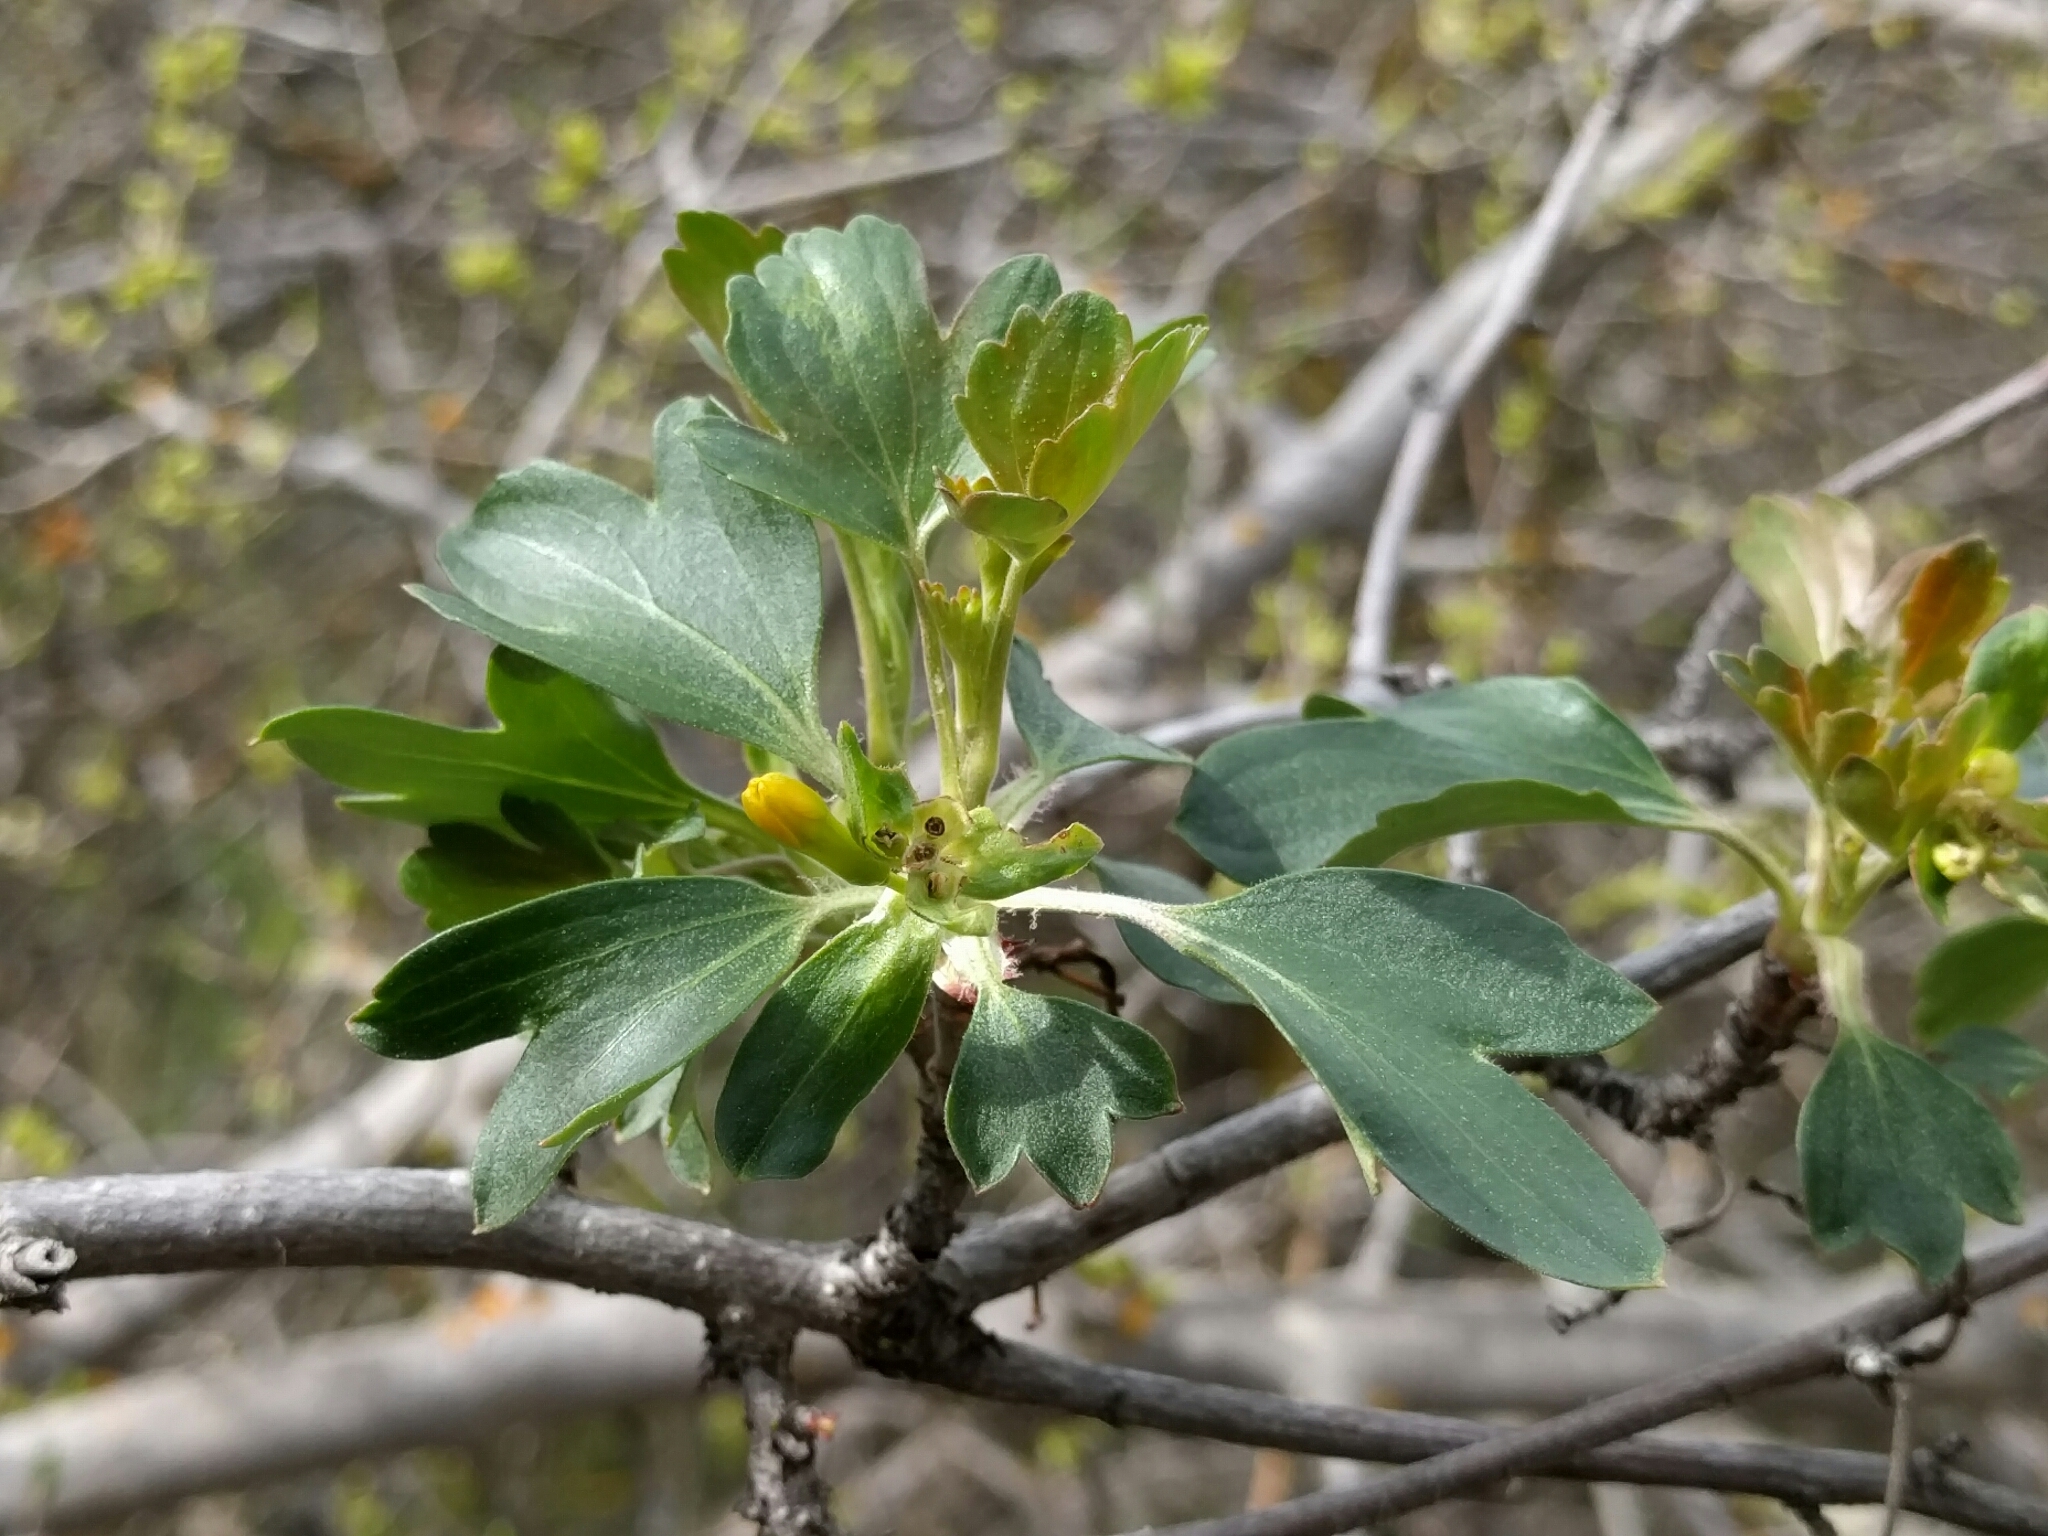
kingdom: Plantae
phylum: Tracheophyta
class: Magnoliopsida
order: Saxifragales
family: Grossulariaceae
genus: Ribes
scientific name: Ribes aureum
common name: Golden currant
